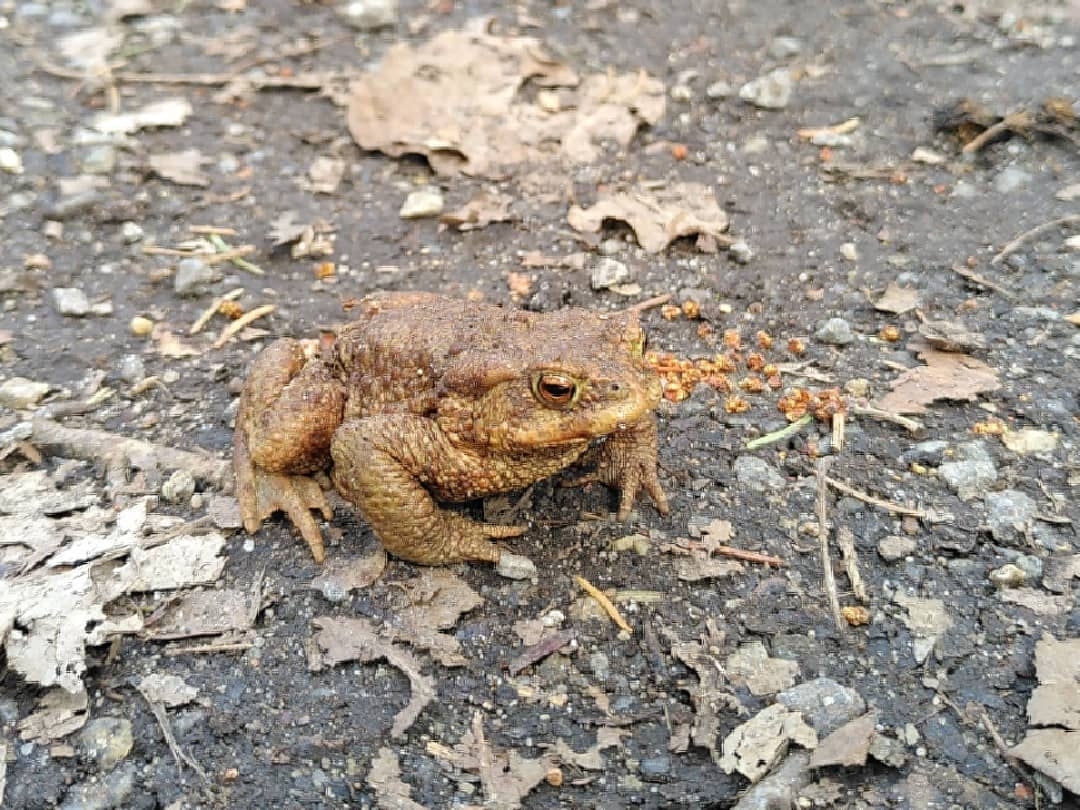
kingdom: Animalia
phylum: Chordata
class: Amphibia
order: Anura
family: Bufonidae
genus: Bufo
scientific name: Bufo bufo
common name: Common toad
